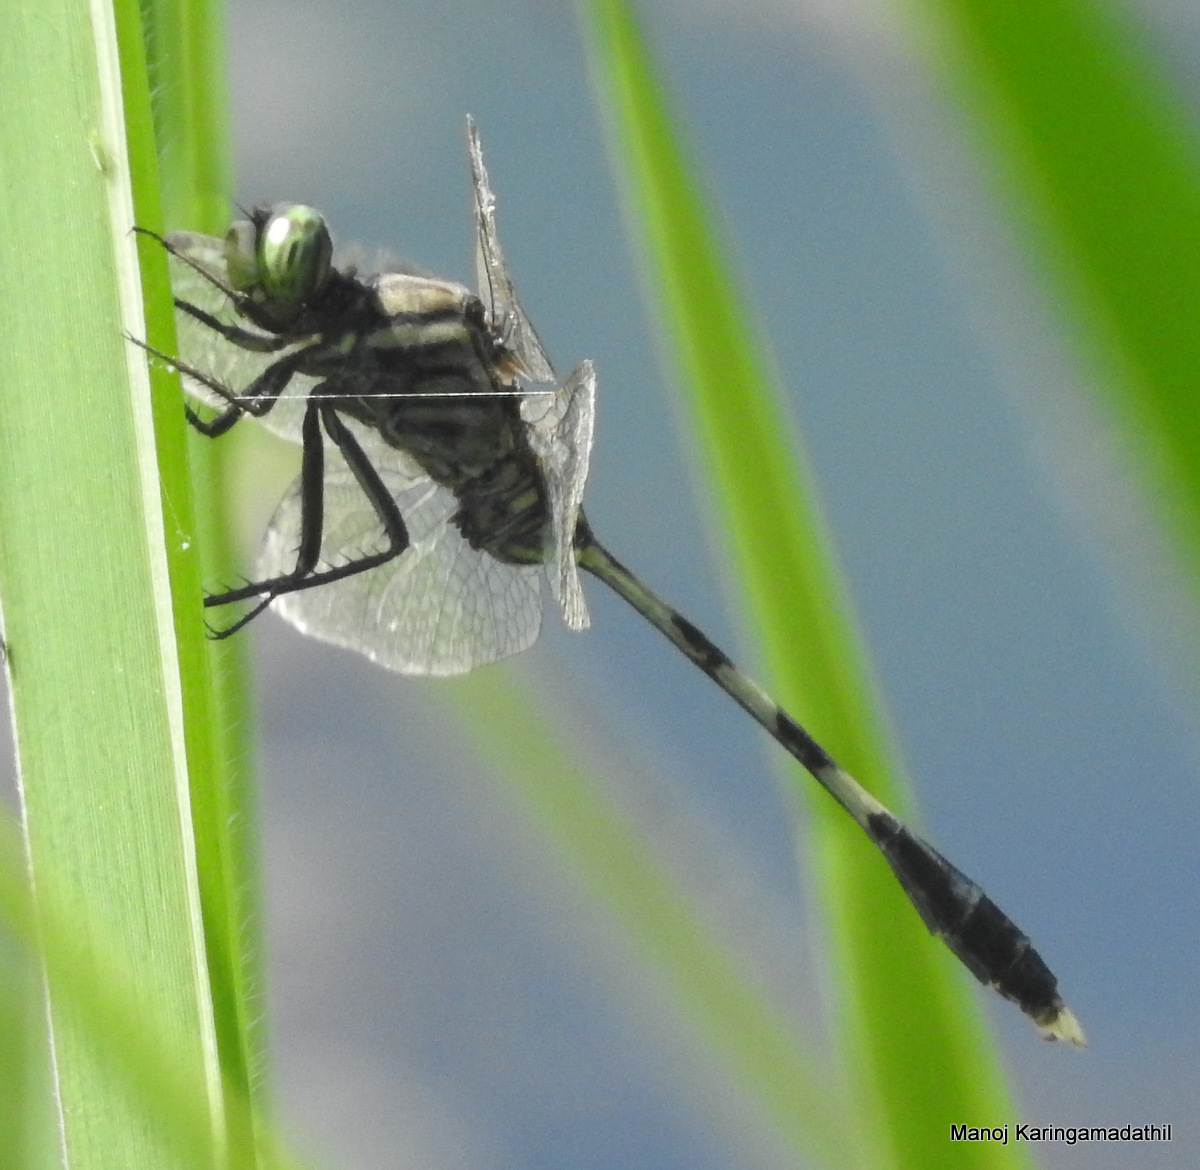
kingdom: Animalia
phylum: Arthropoda
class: Insecta
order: Odonata
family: Libellulidae
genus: Orthetrum
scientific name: Orthetrum sabina
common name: Slender skimmer
